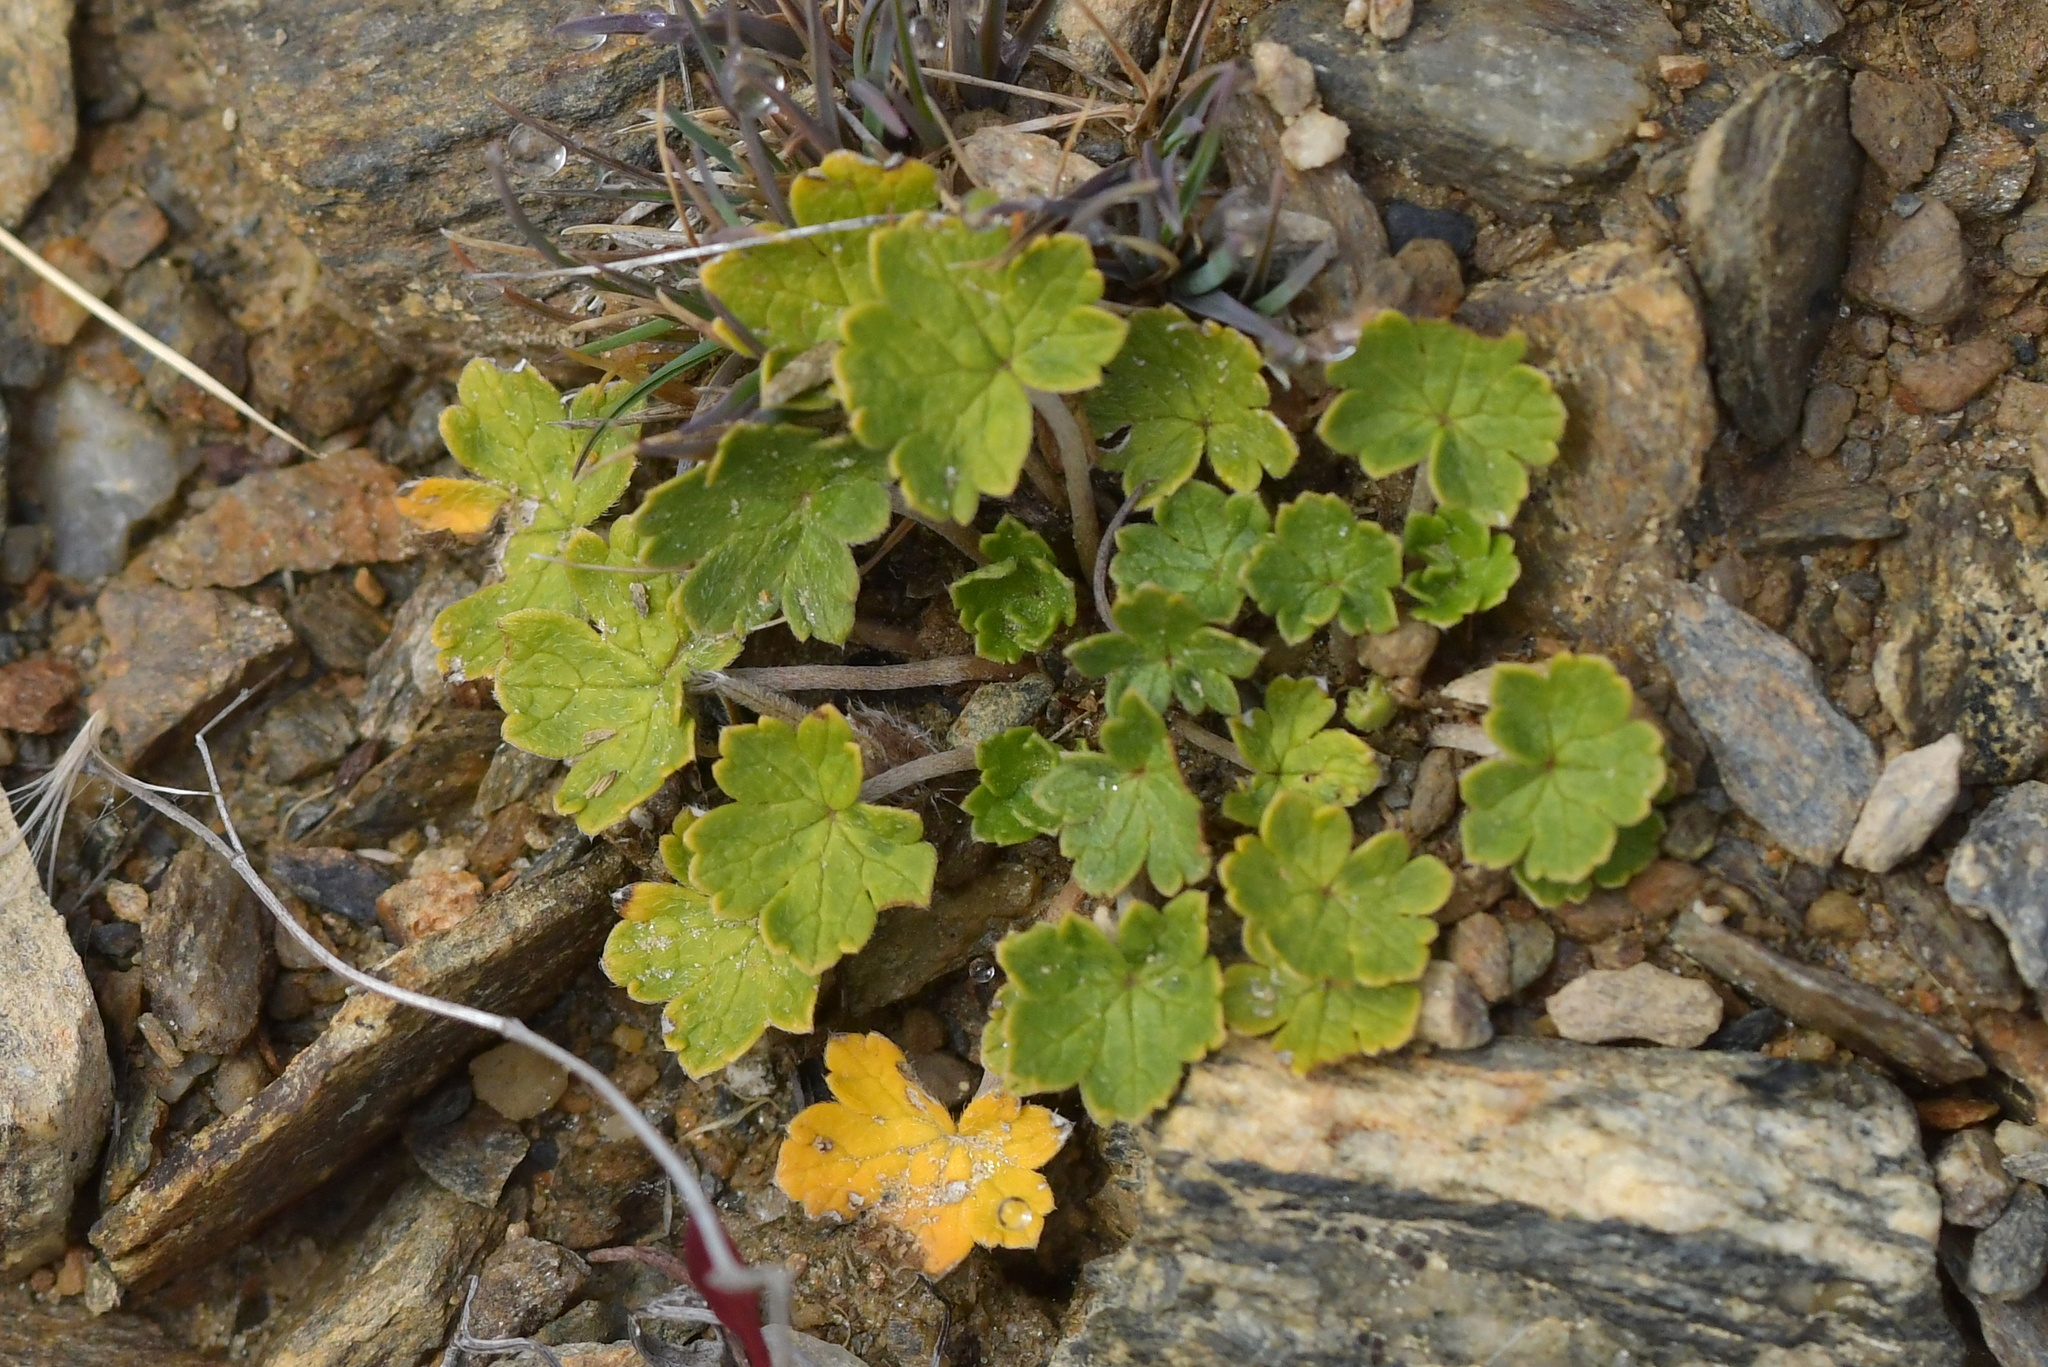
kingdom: Plantae
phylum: Tracheophyta
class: Magnoliopsida
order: Geraniales
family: Geraniaceae
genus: Geranium
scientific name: Geranium brevicaule
